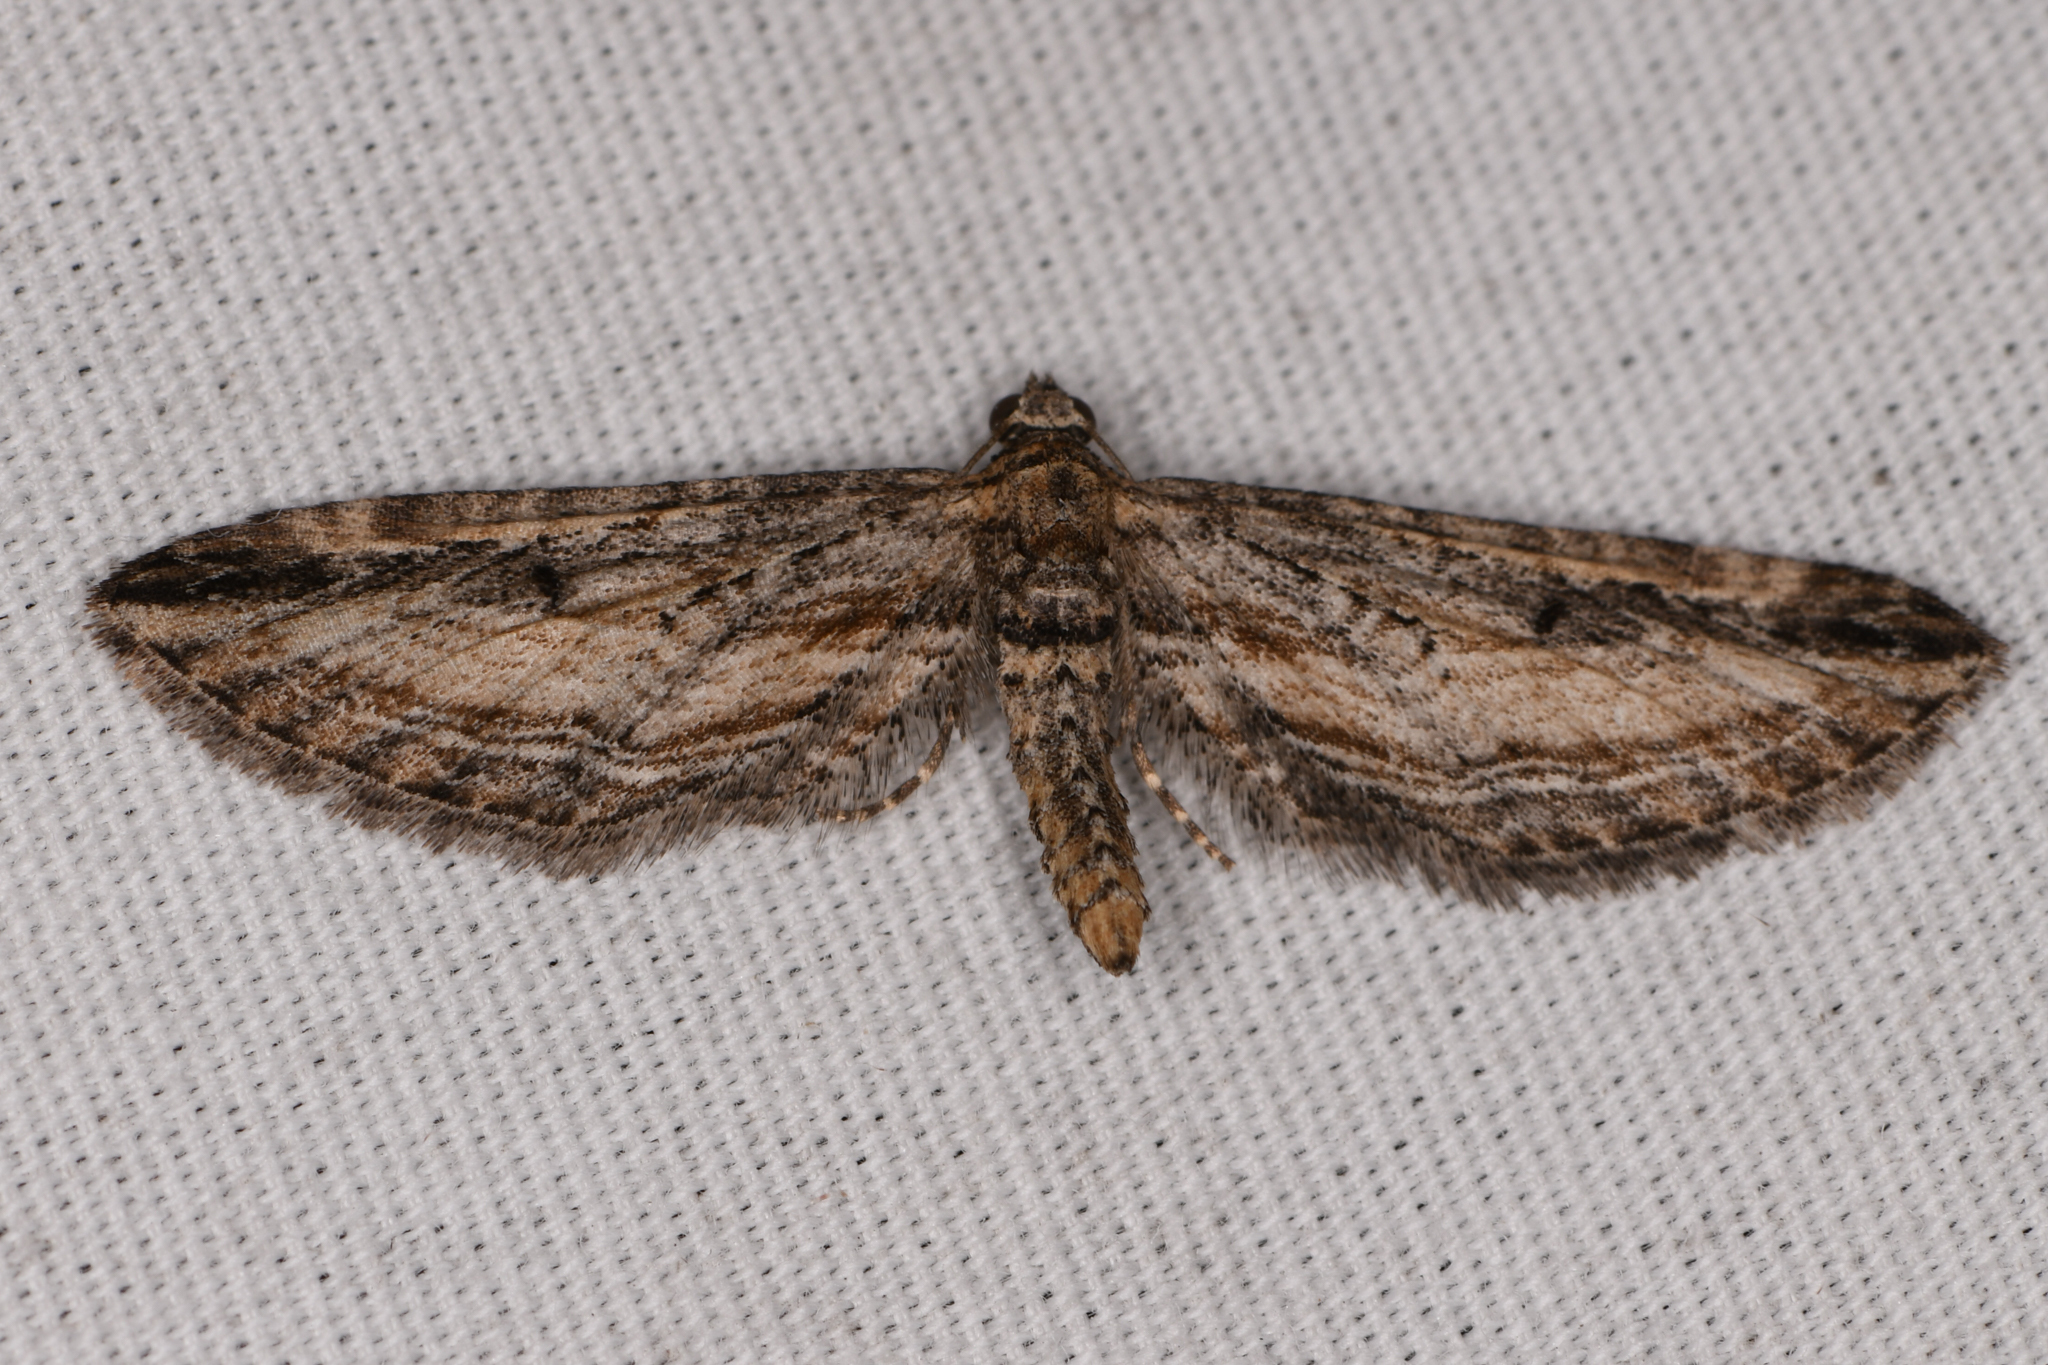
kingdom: Animalia
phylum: Arthropoda
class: Insecta
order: Lepidoptera
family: Geometridae
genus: Eupithecia
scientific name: Eupithecia acutipennis
